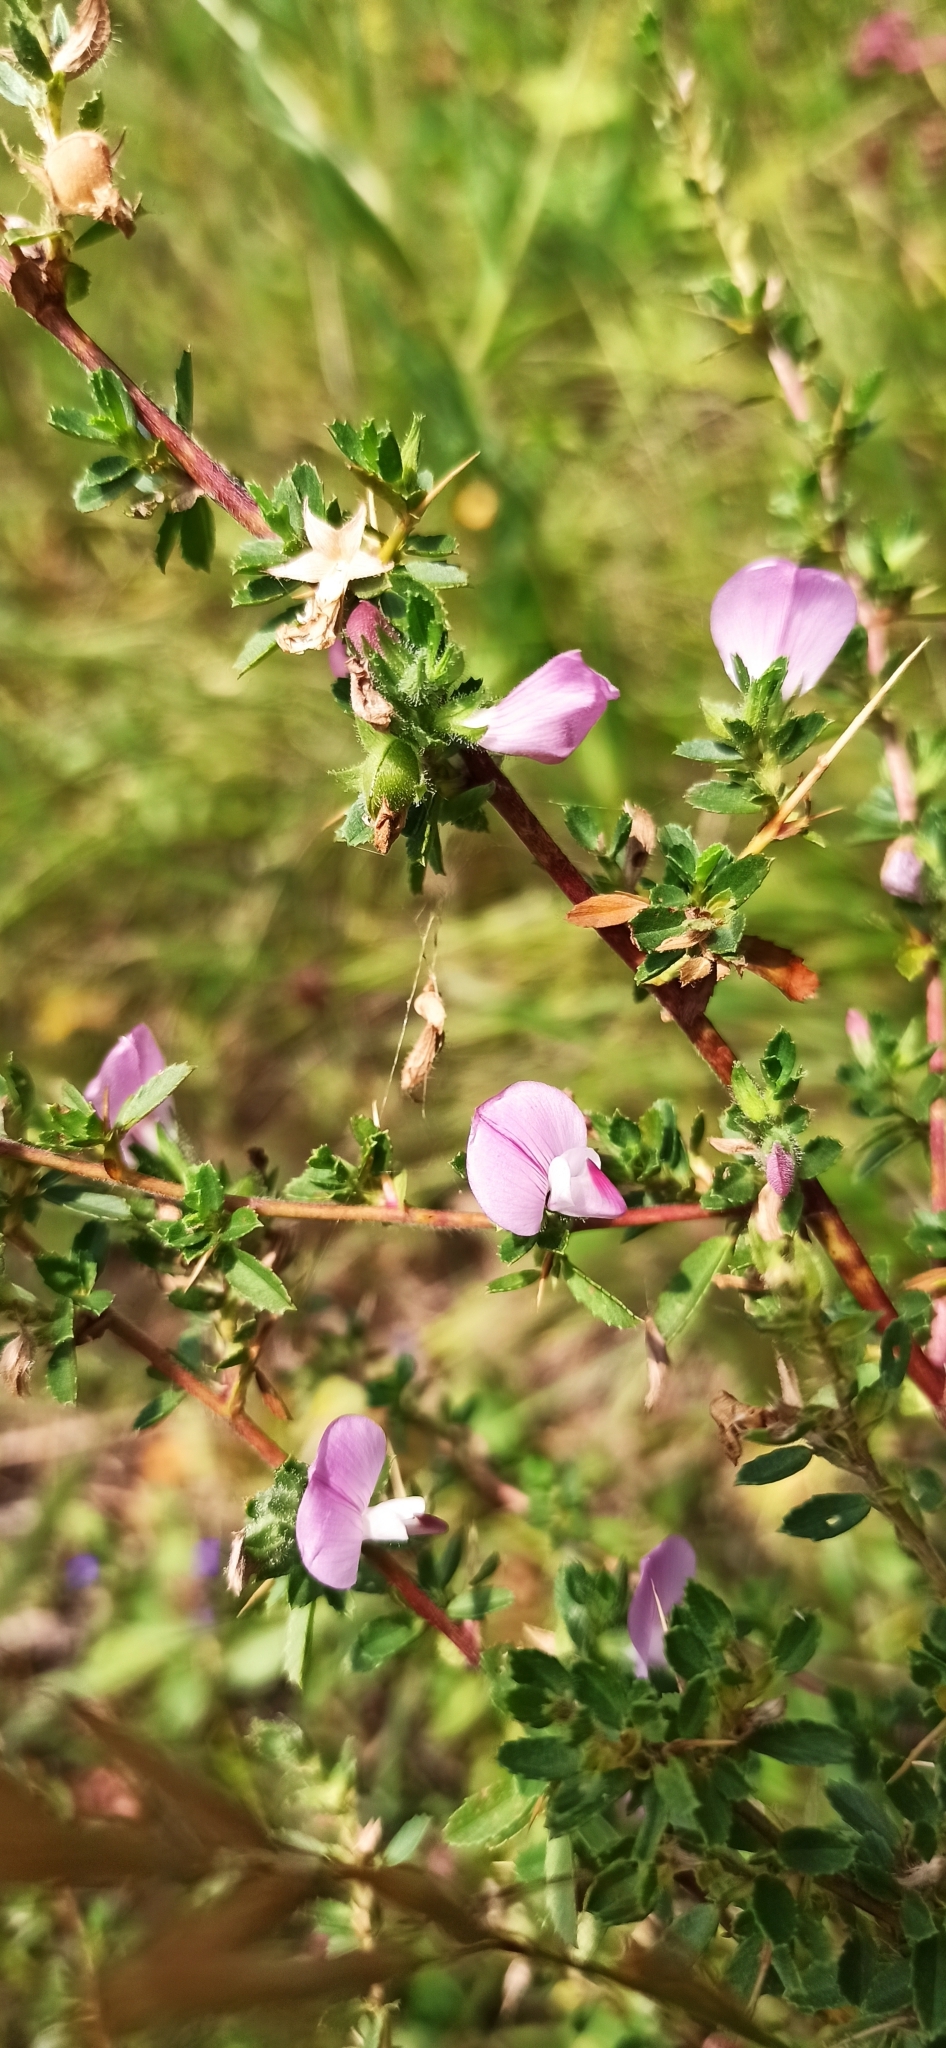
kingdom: Plantae
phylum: Tracheophyta
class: Magnoliopsida
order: Fabales
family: Fabaceae
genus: Ononis
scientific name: Ononis spinosa
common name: Spiny restharrow
